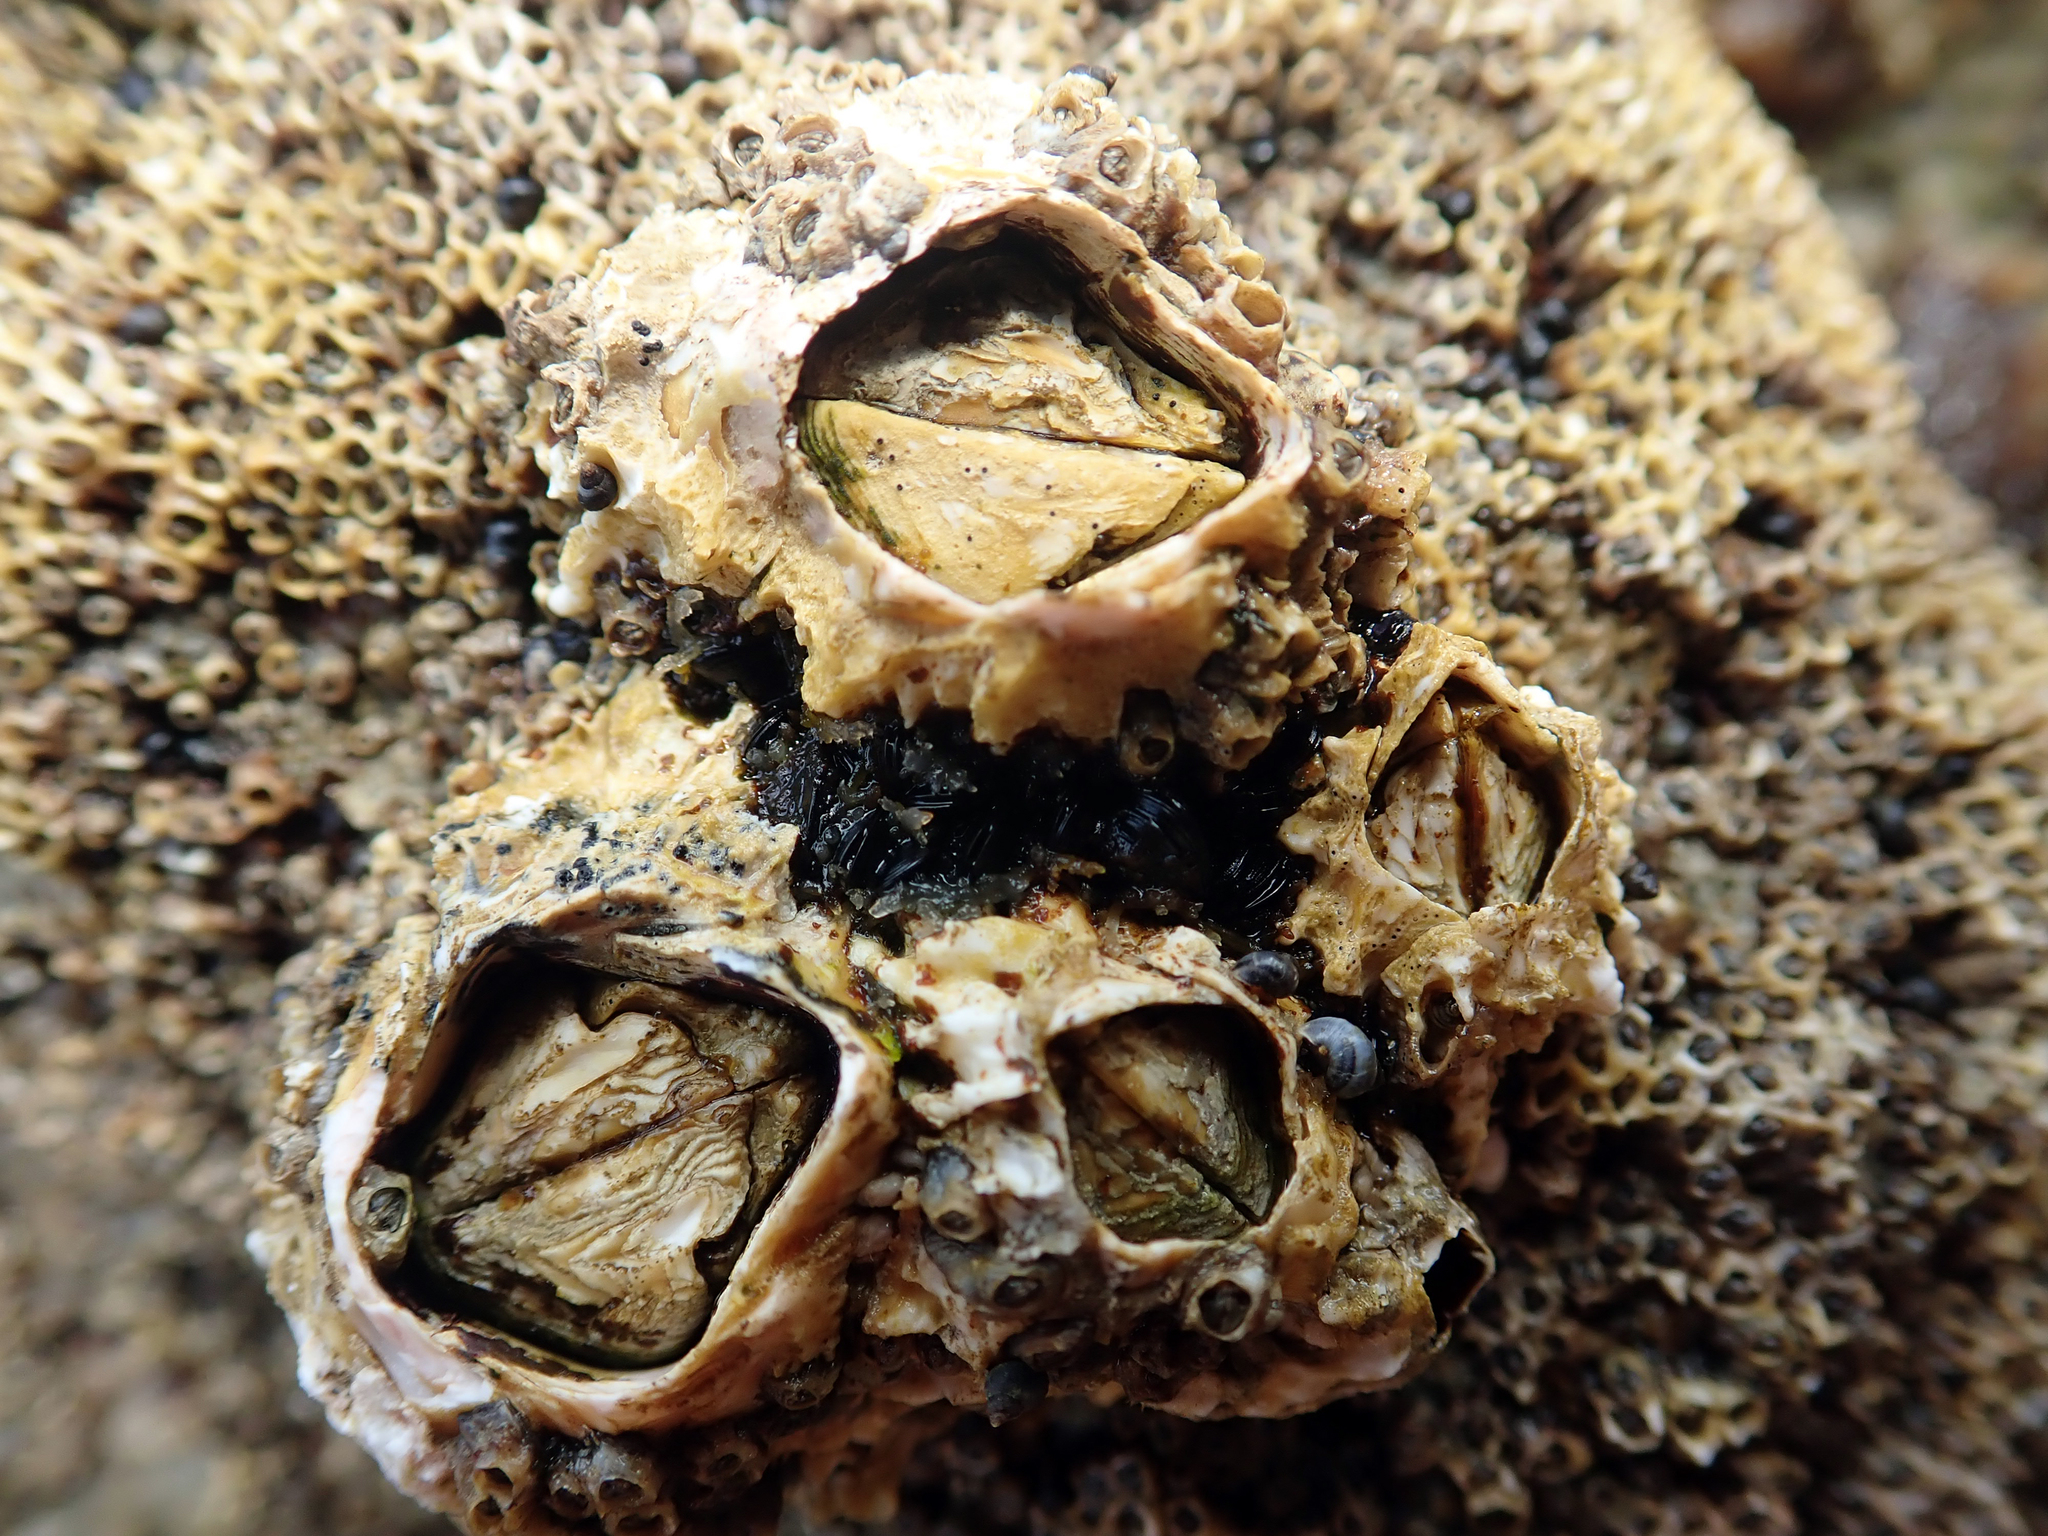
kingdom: Animalia
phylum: Arthropoda
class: Maxillopoda
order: Sessilia
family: Tetraclitidae
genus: Epopella
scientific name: Epopella plicata
